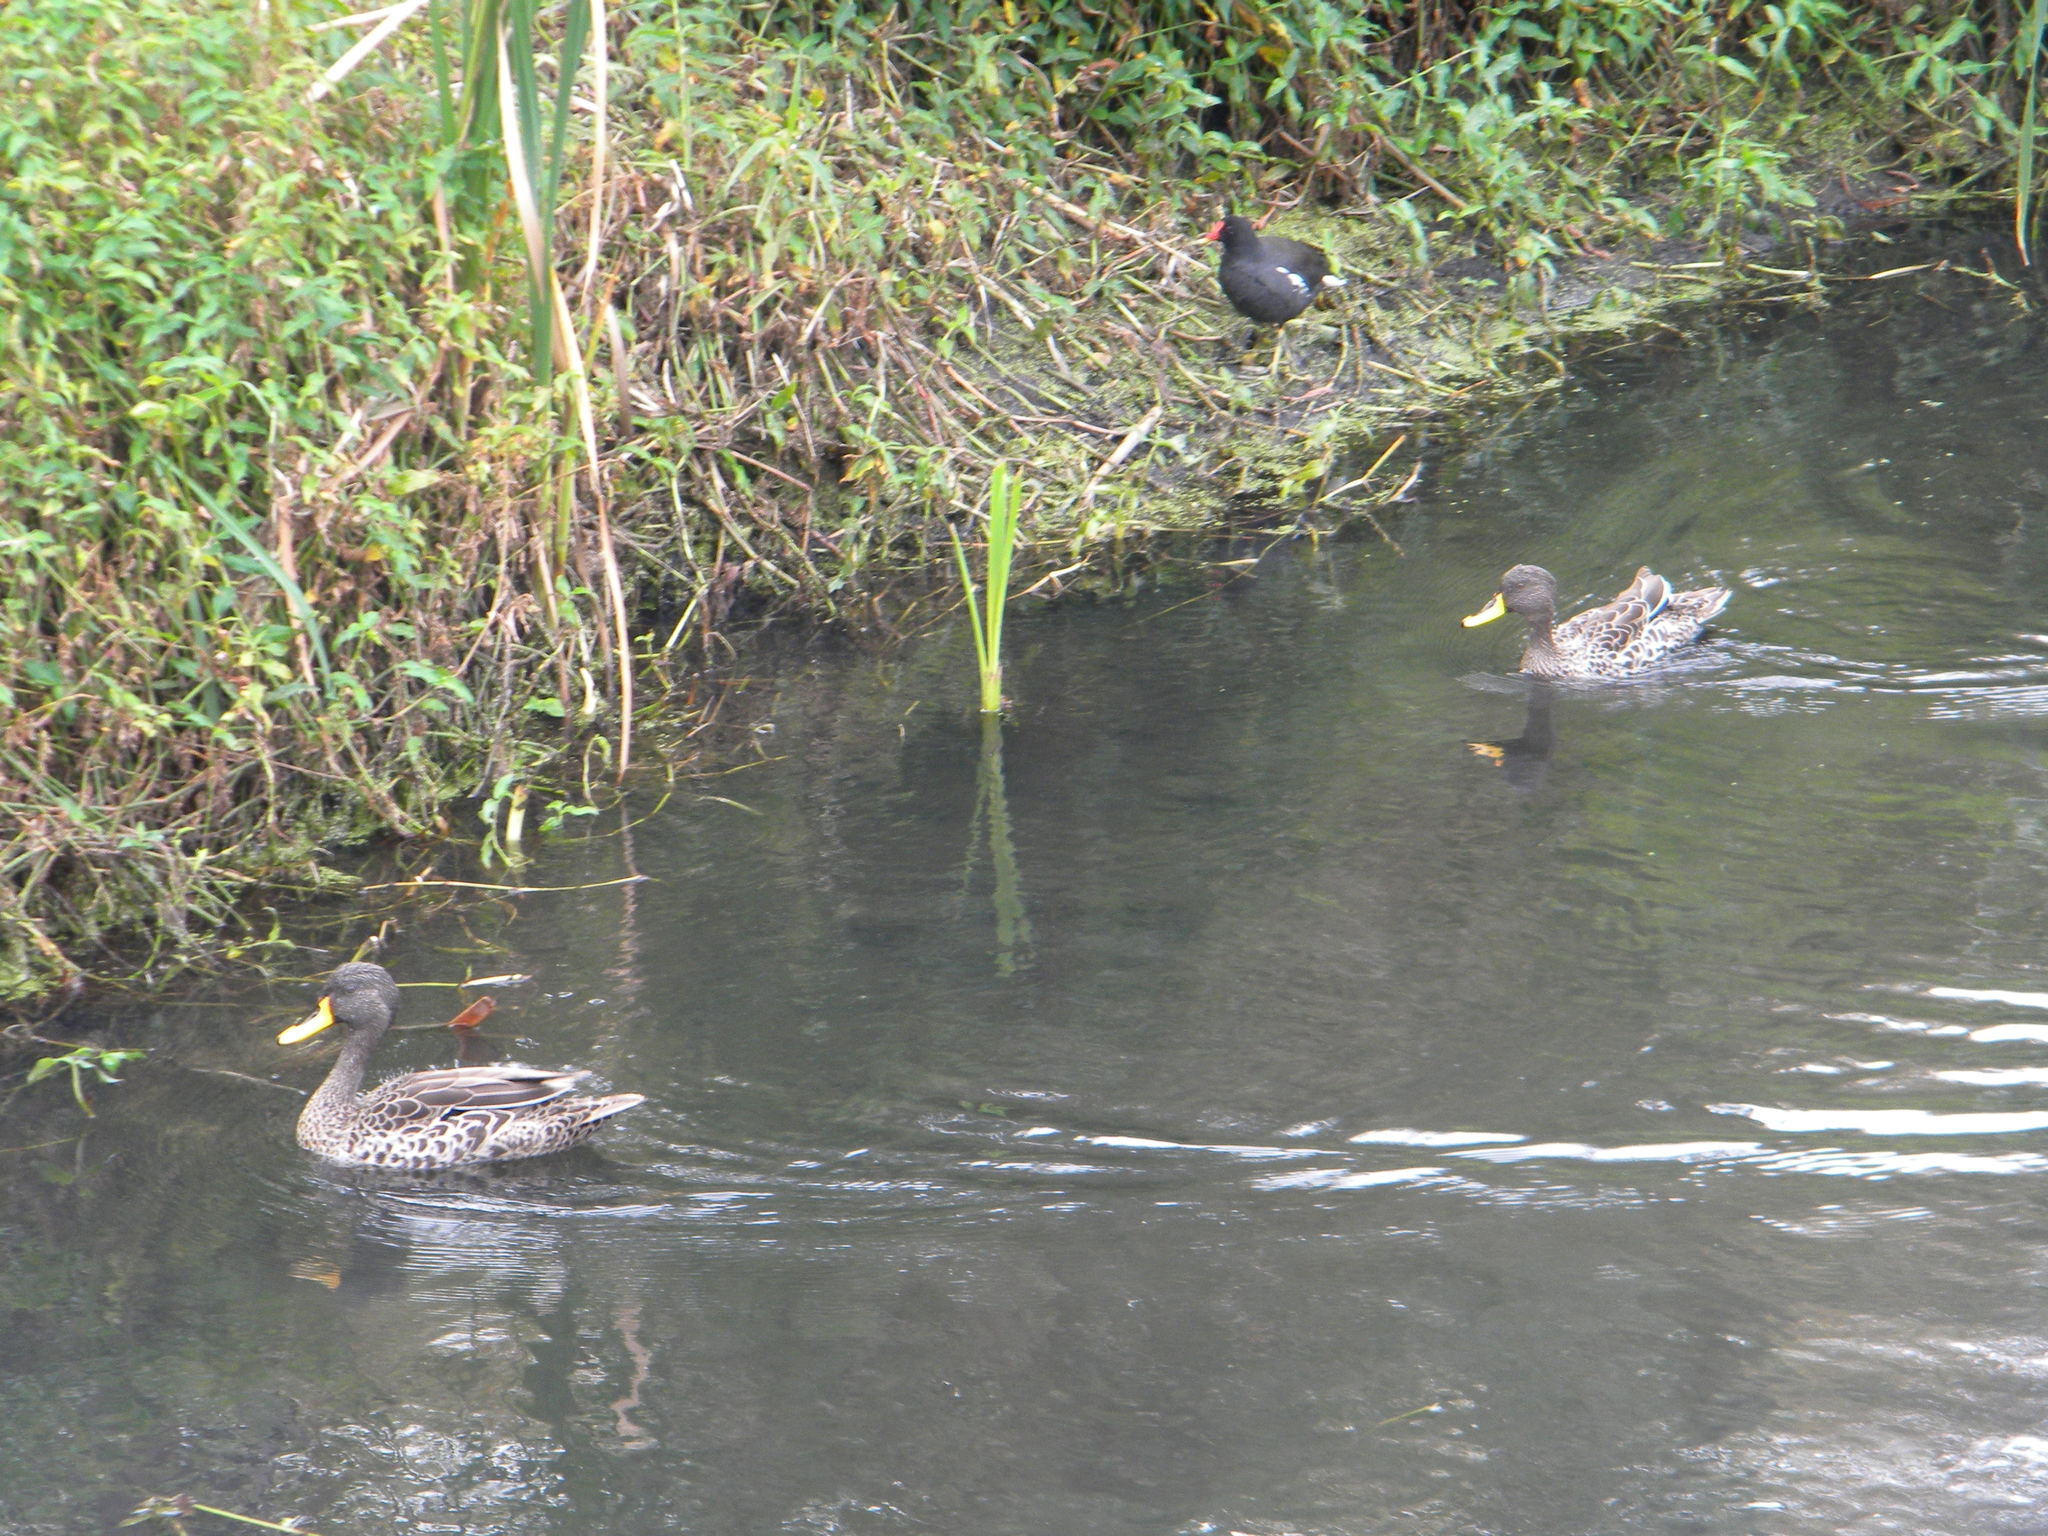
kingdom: Animalia
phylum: Chordata
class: Aves
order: Anseriformes
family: Anatidae
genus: Anas
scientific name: Anas undulata
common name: Yellow-billed duck
